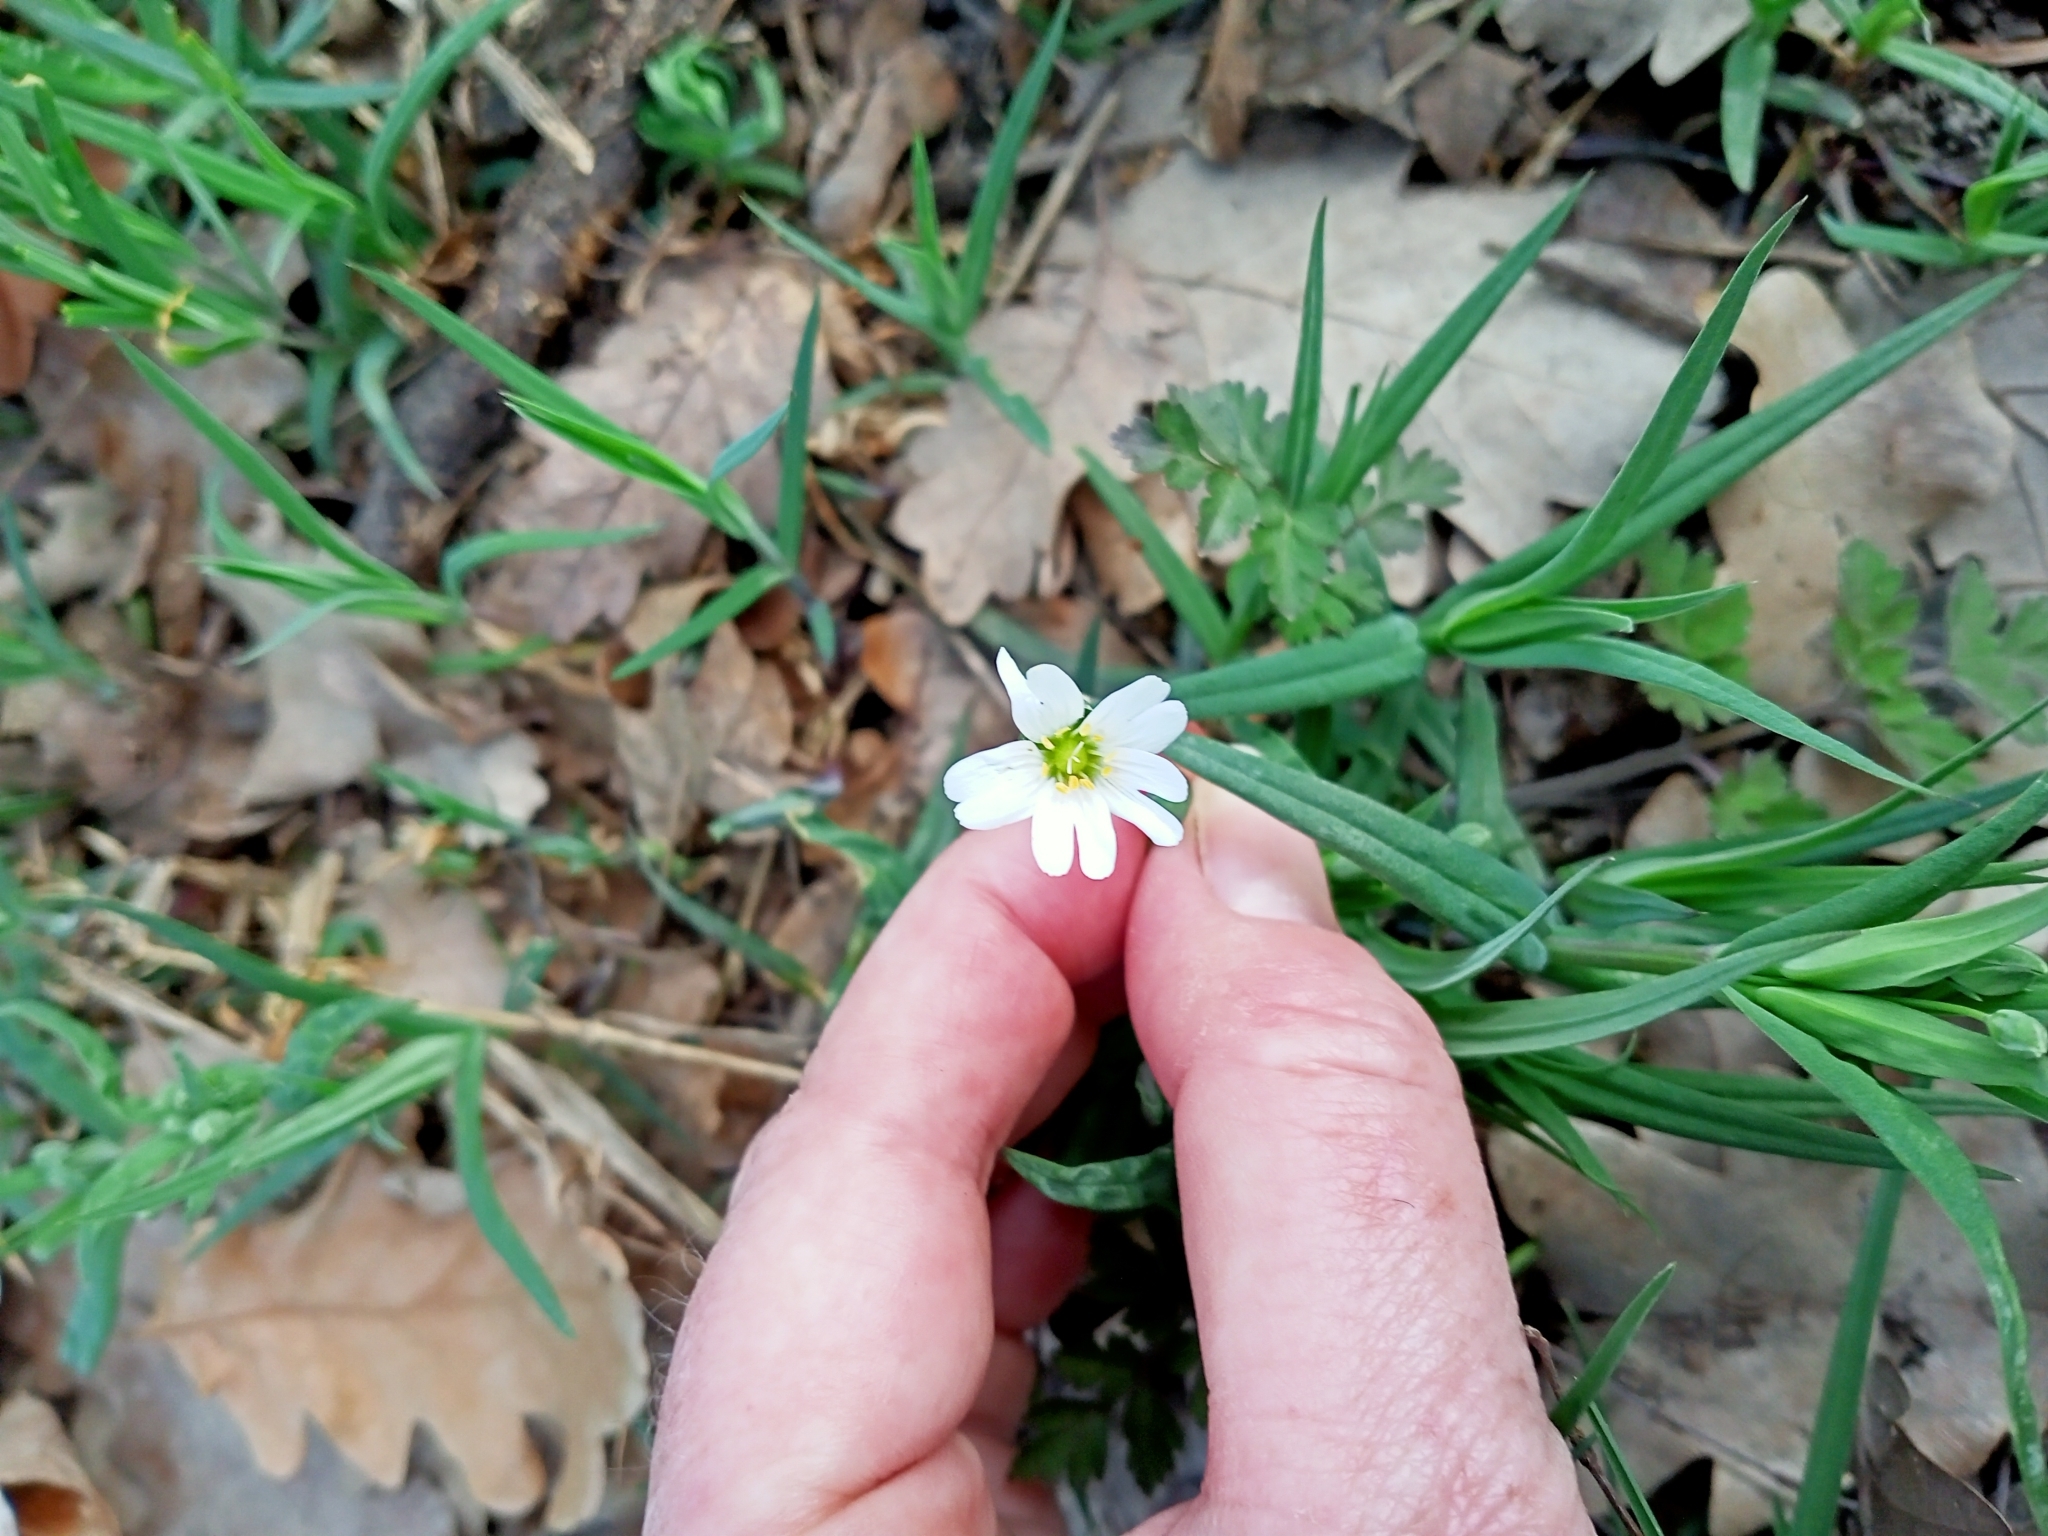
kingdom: Plantae
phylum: Tracheophyta
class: Magnoliopsida
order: Caryophyllales
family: Caryophyllaceae
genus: Rabelera
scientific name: Rabelera holostea
